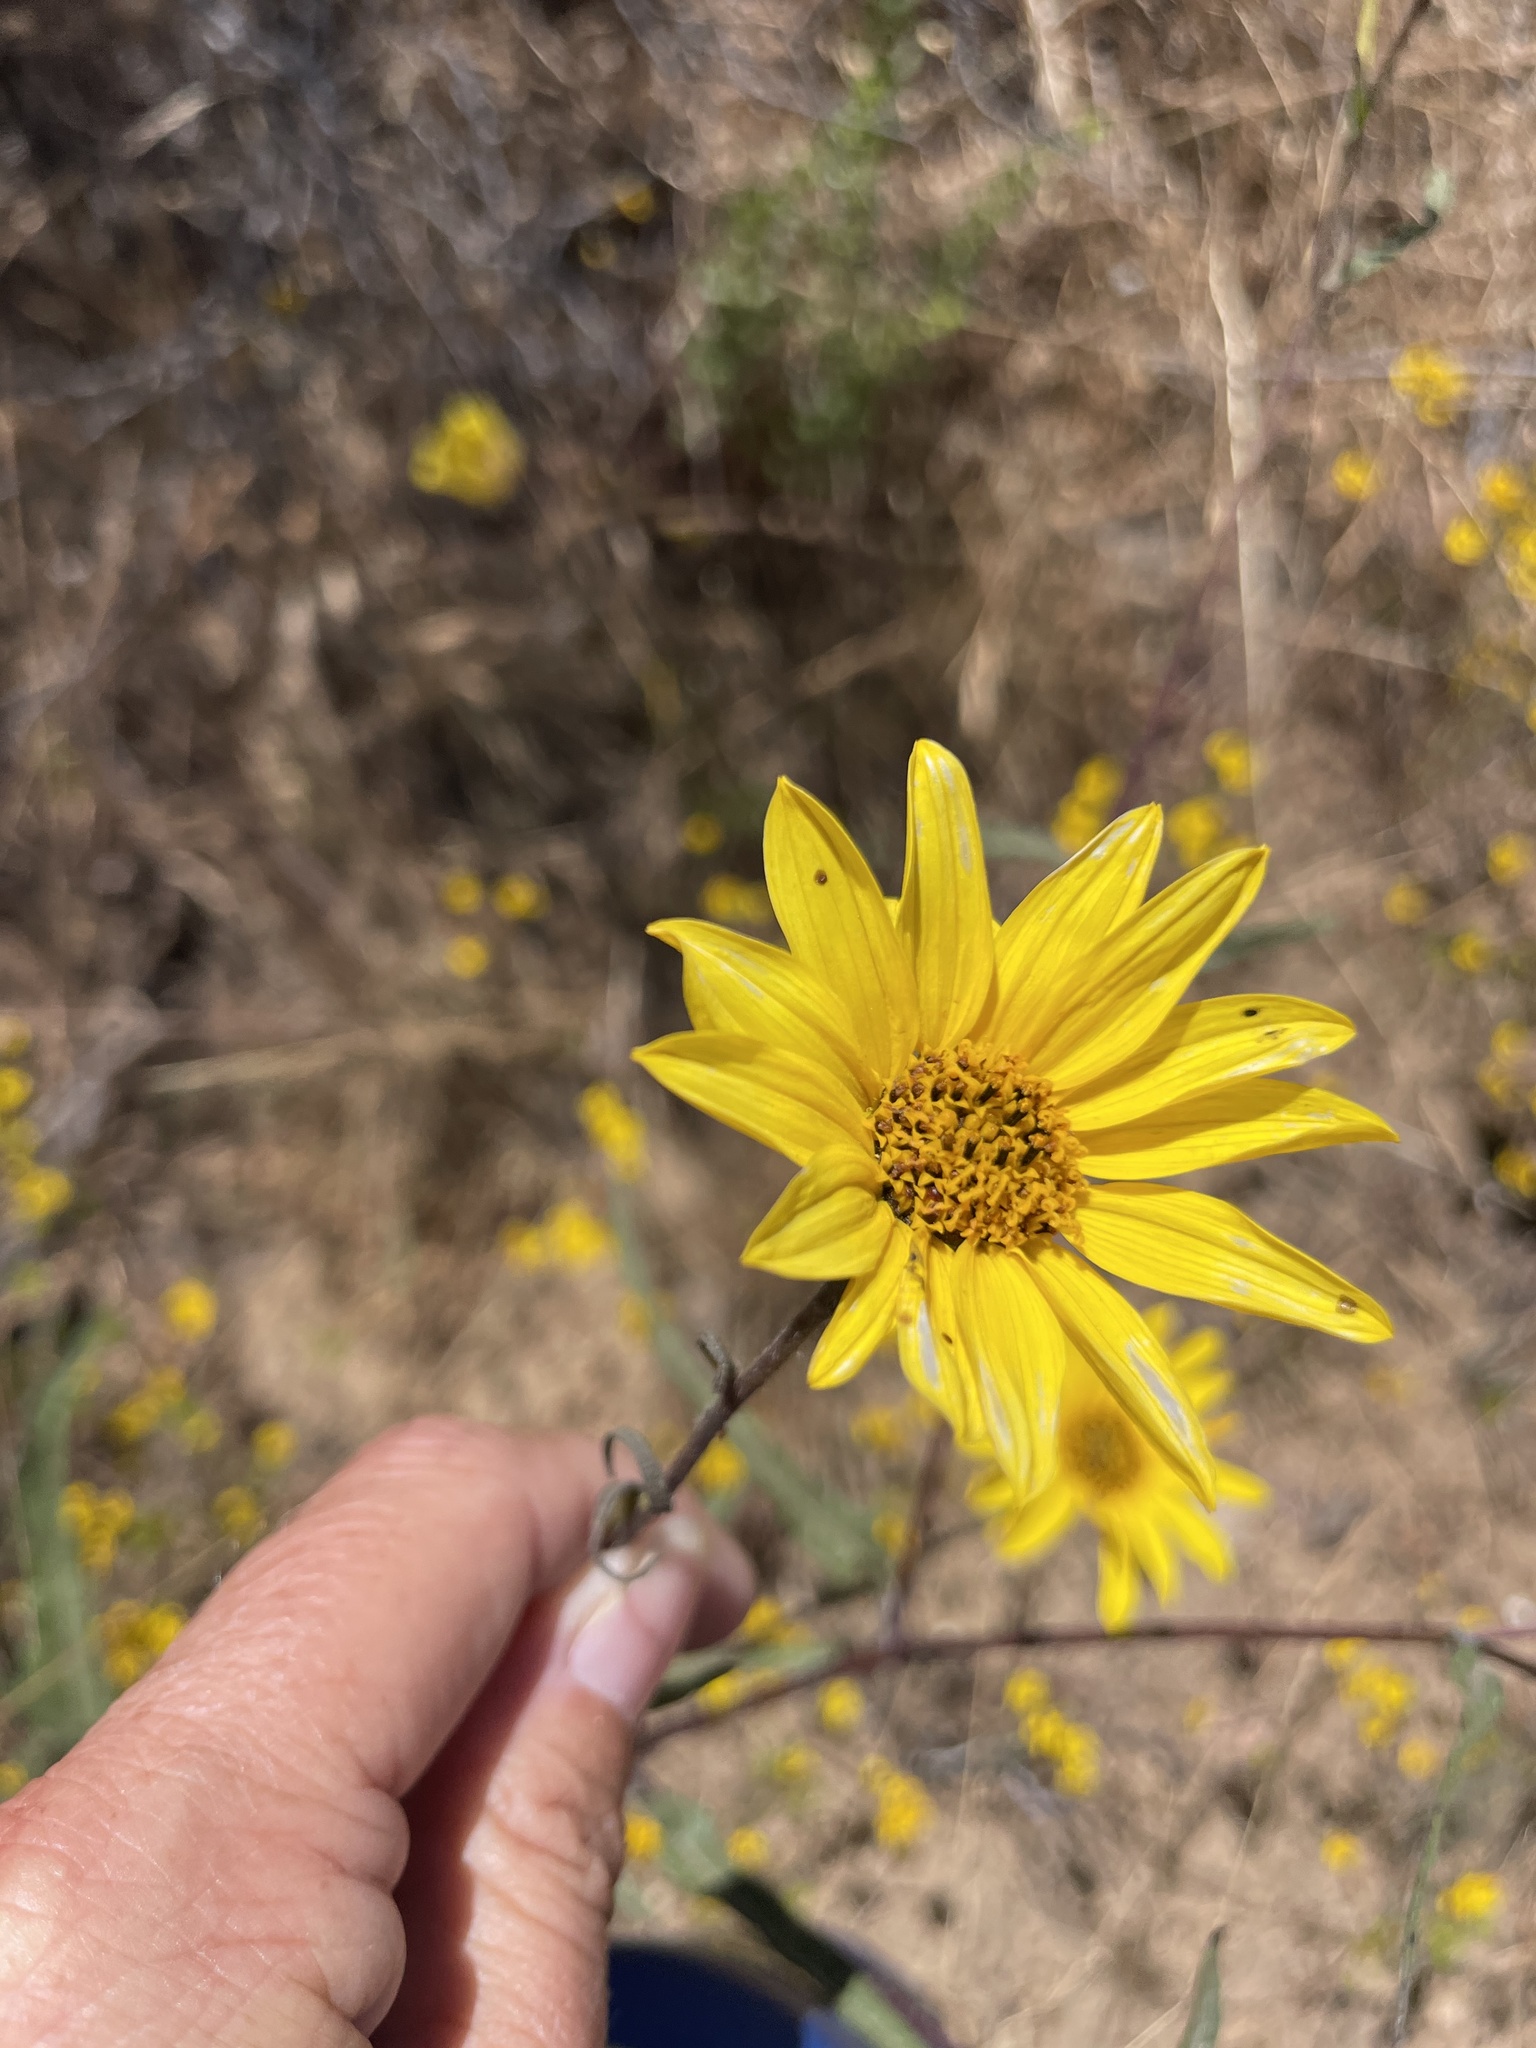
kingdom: Plantae
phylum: Tracheophyta
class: Magnoliopsida
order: Asterales
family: Asteraceae
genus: Helianthus
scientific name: Helianthus gracilentus
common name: Slender sunflower
